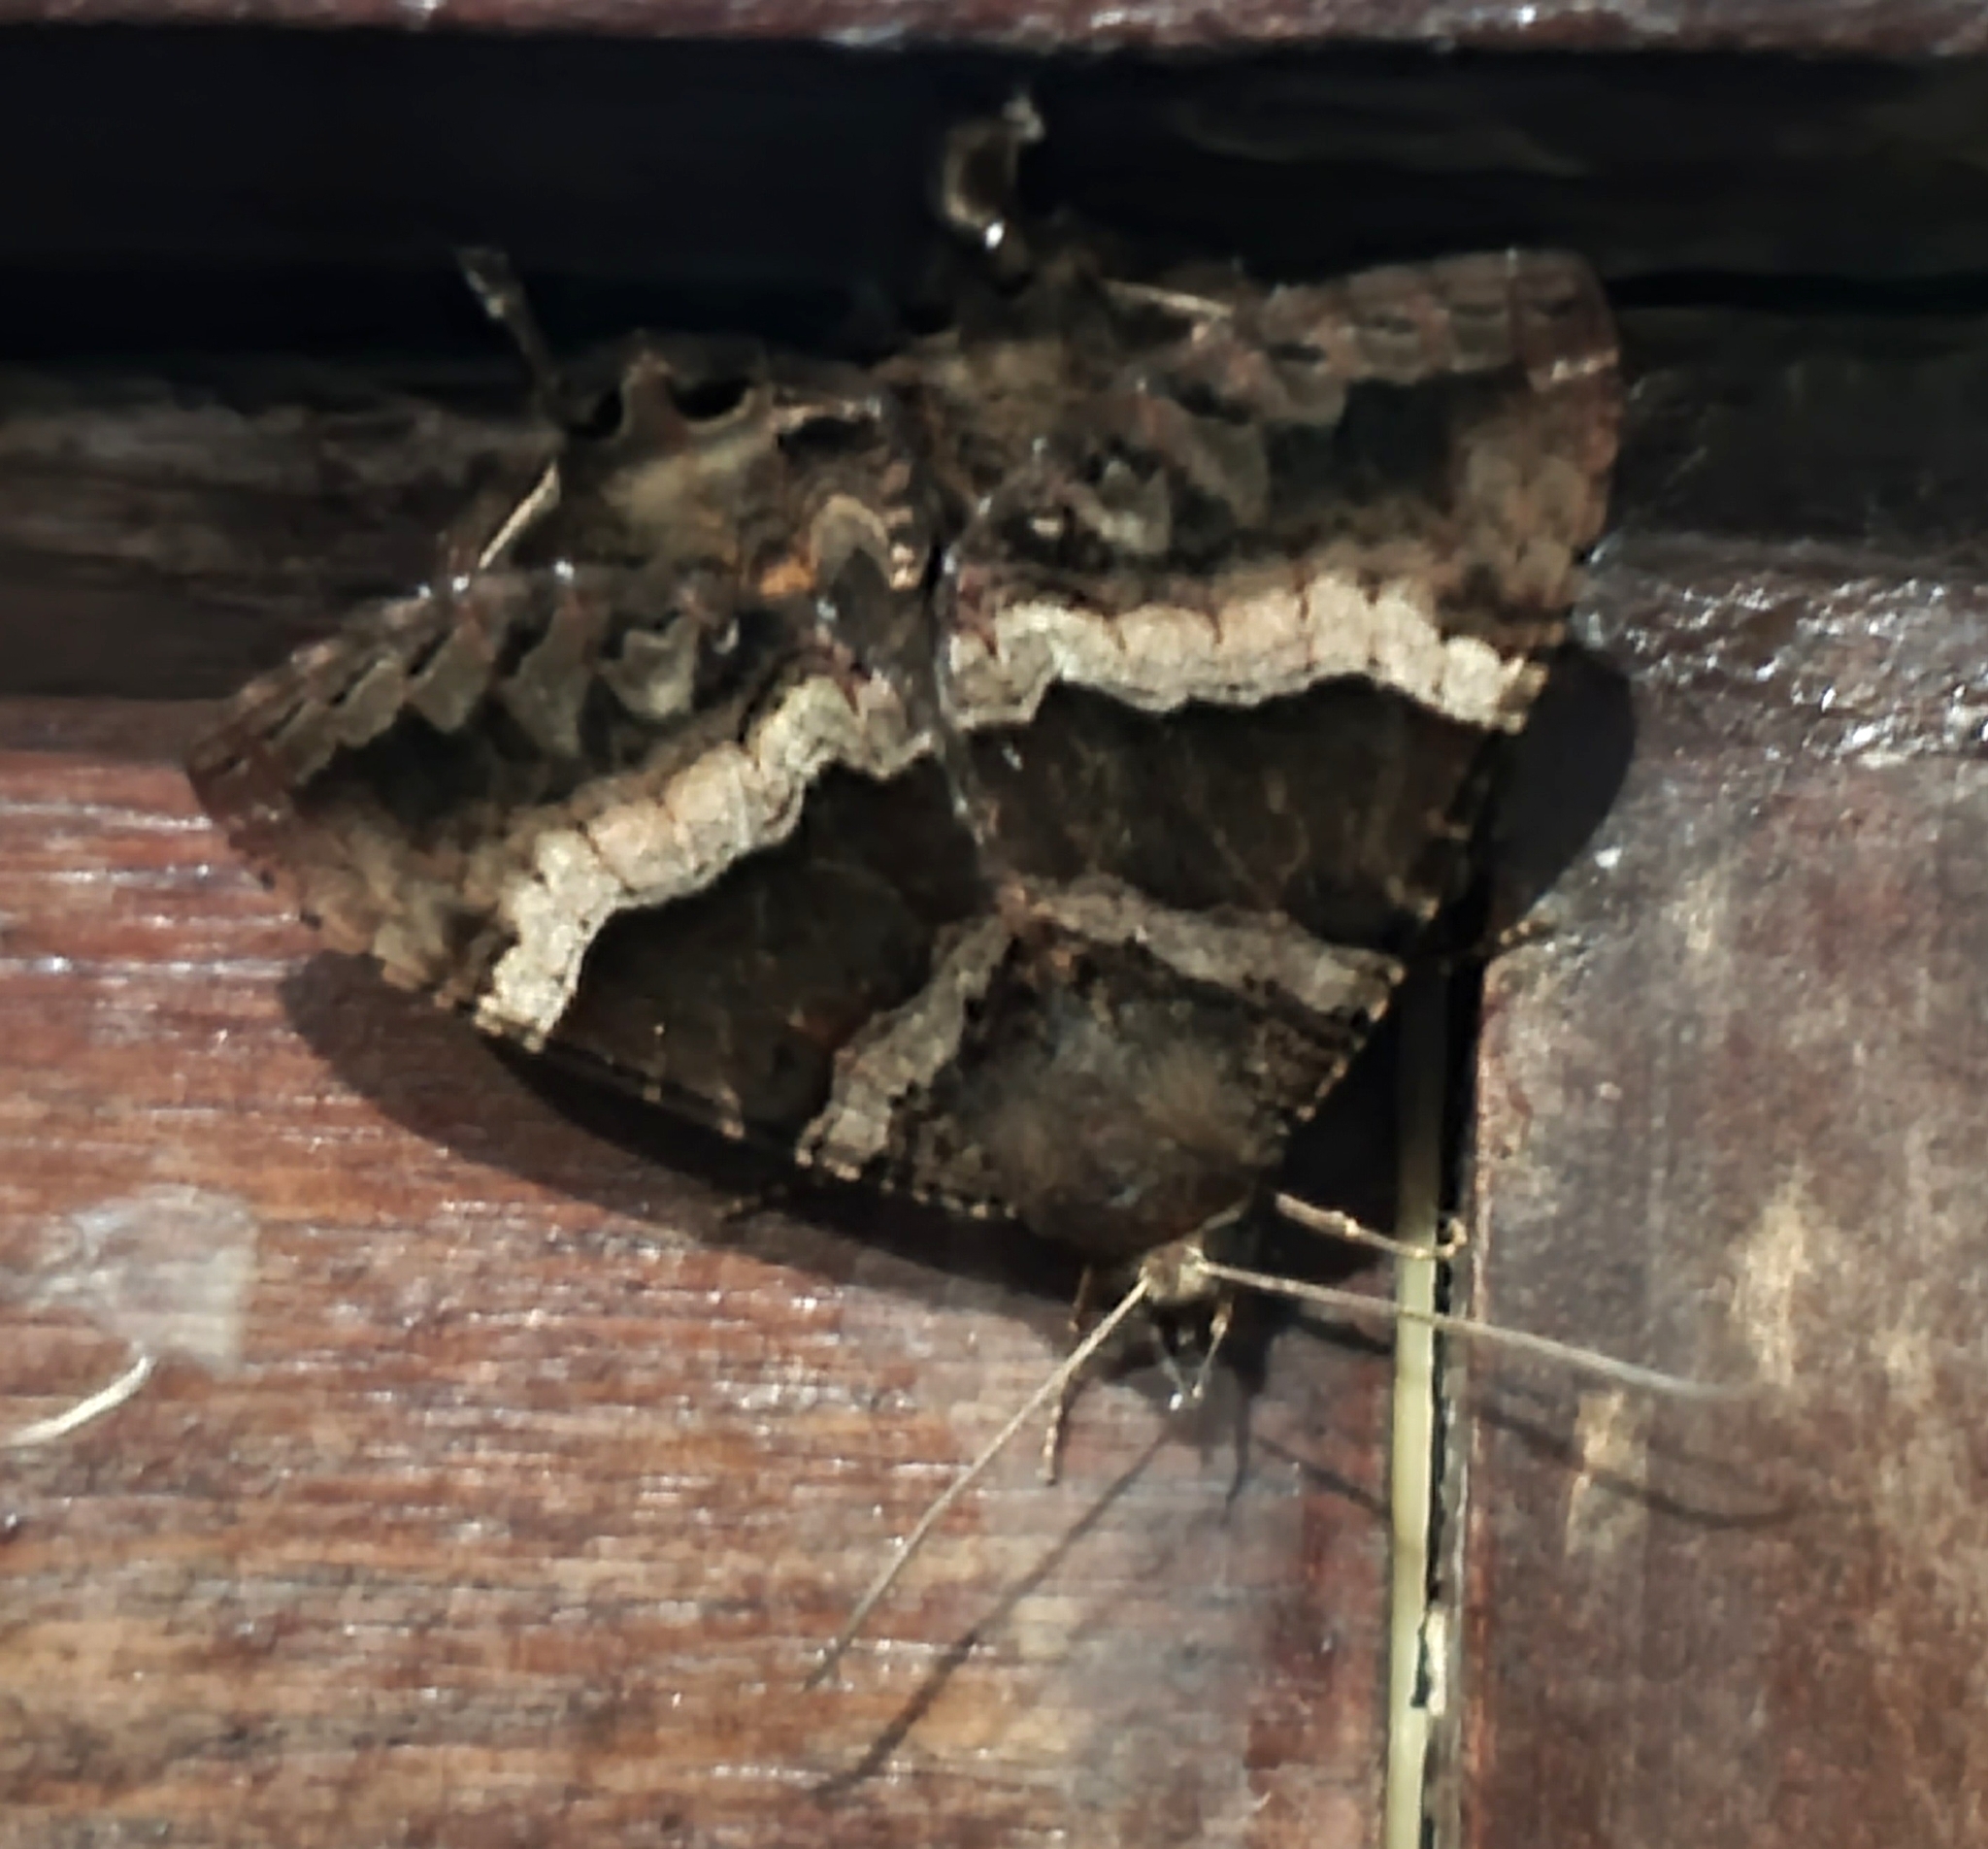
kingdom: Animalia
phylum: Arthropoda
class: Insecta
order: Lepidoptera
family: Sematuridae
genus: Coronidia
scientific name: Coronidia leachii
